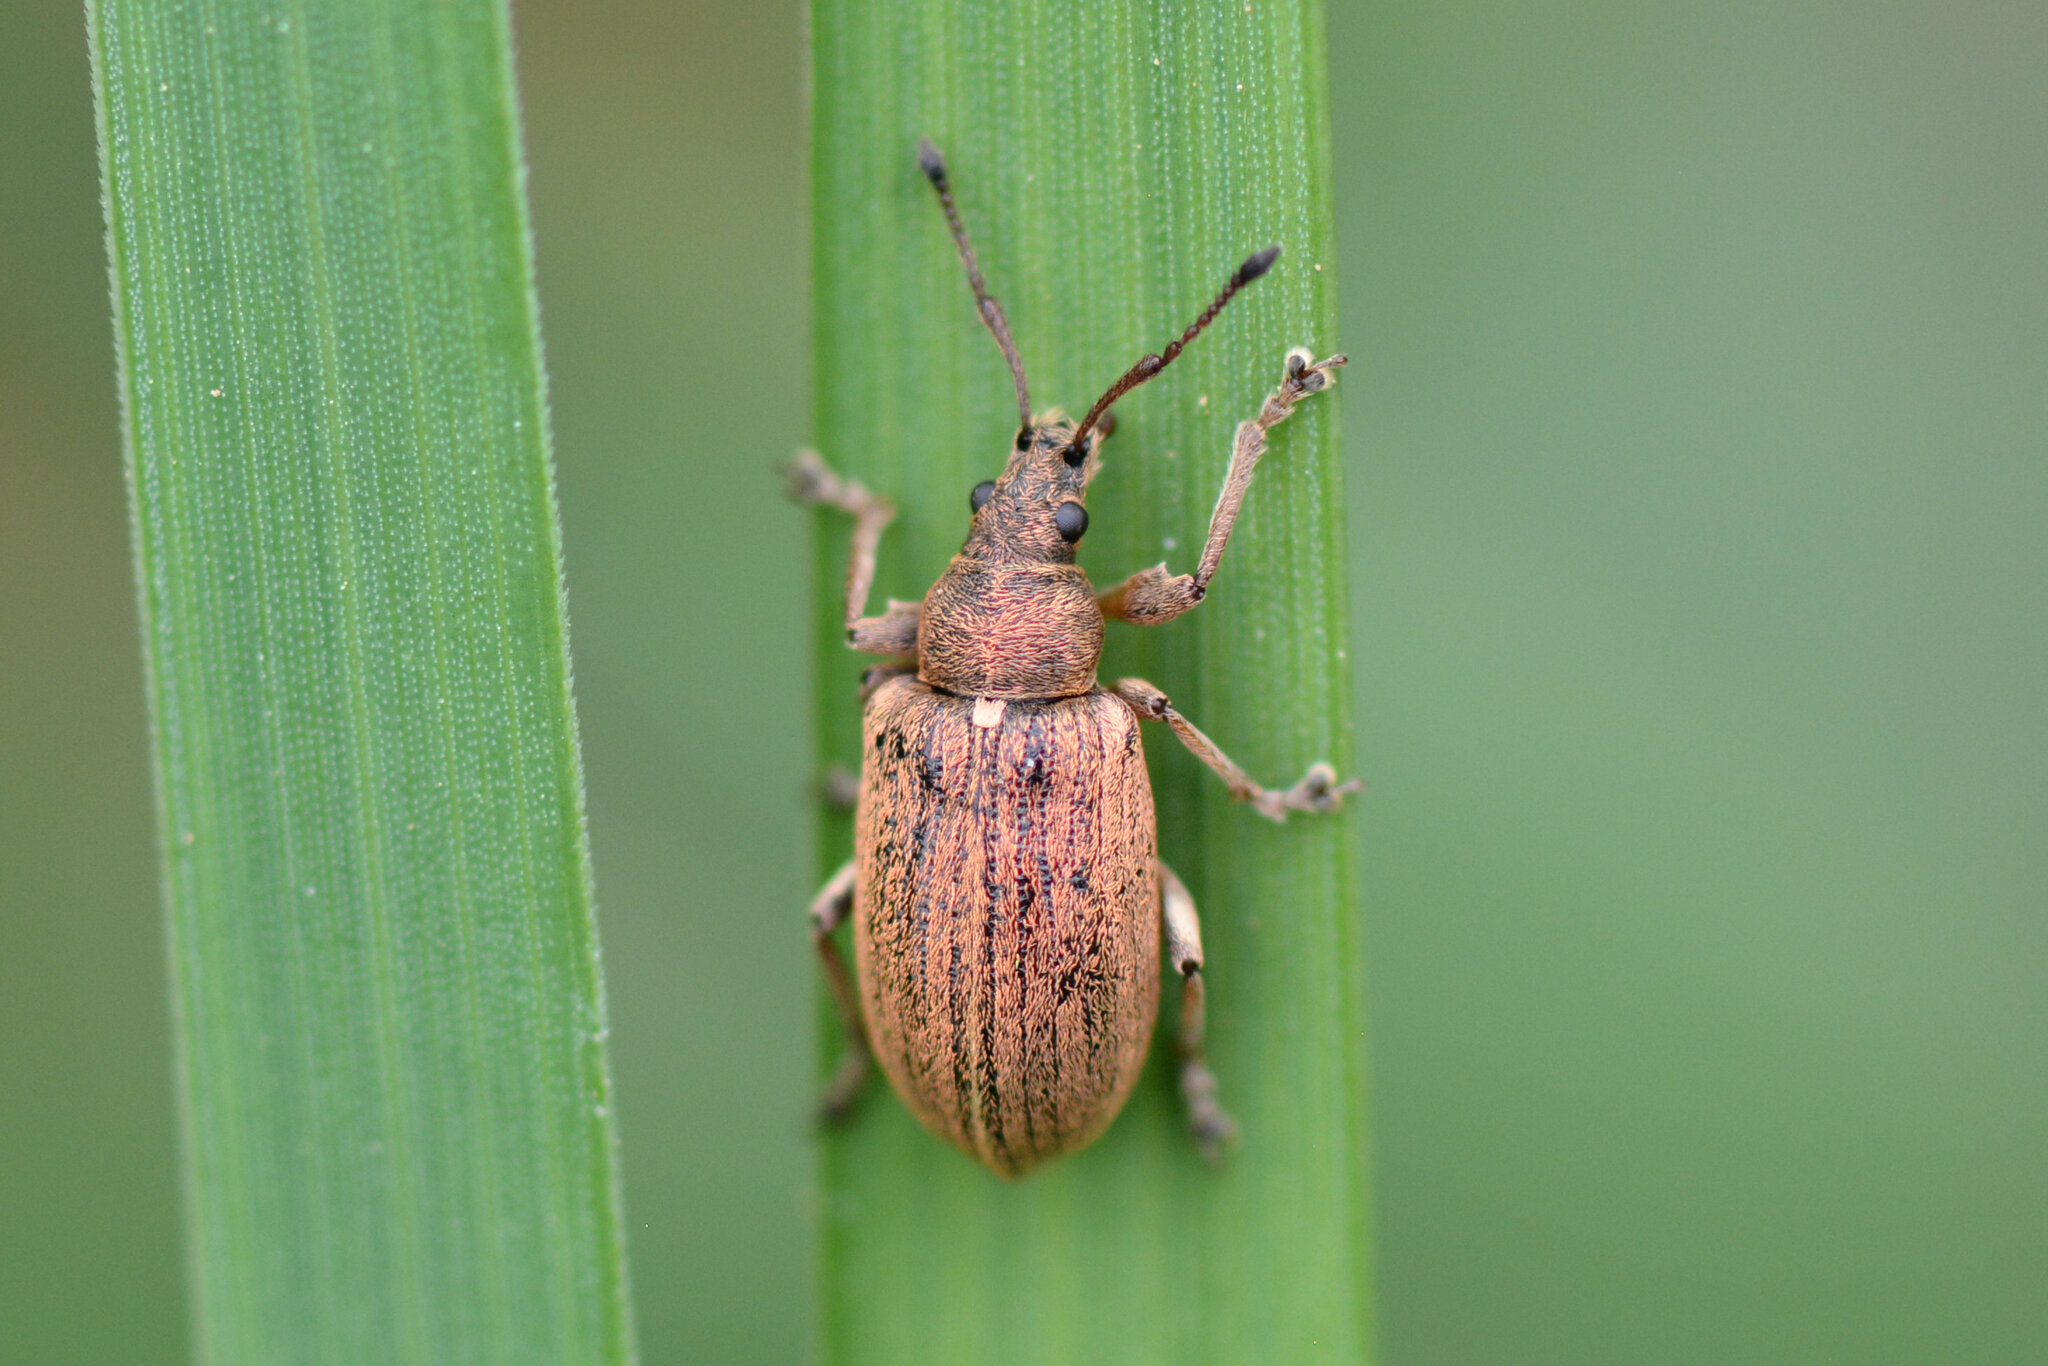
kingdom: Animalia
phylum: Arthropoda
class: Insecta
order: Coleoptera
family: Curculionidae
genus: Phyllobius
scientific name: Phyllobius pyri
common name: Common leaf weevil
